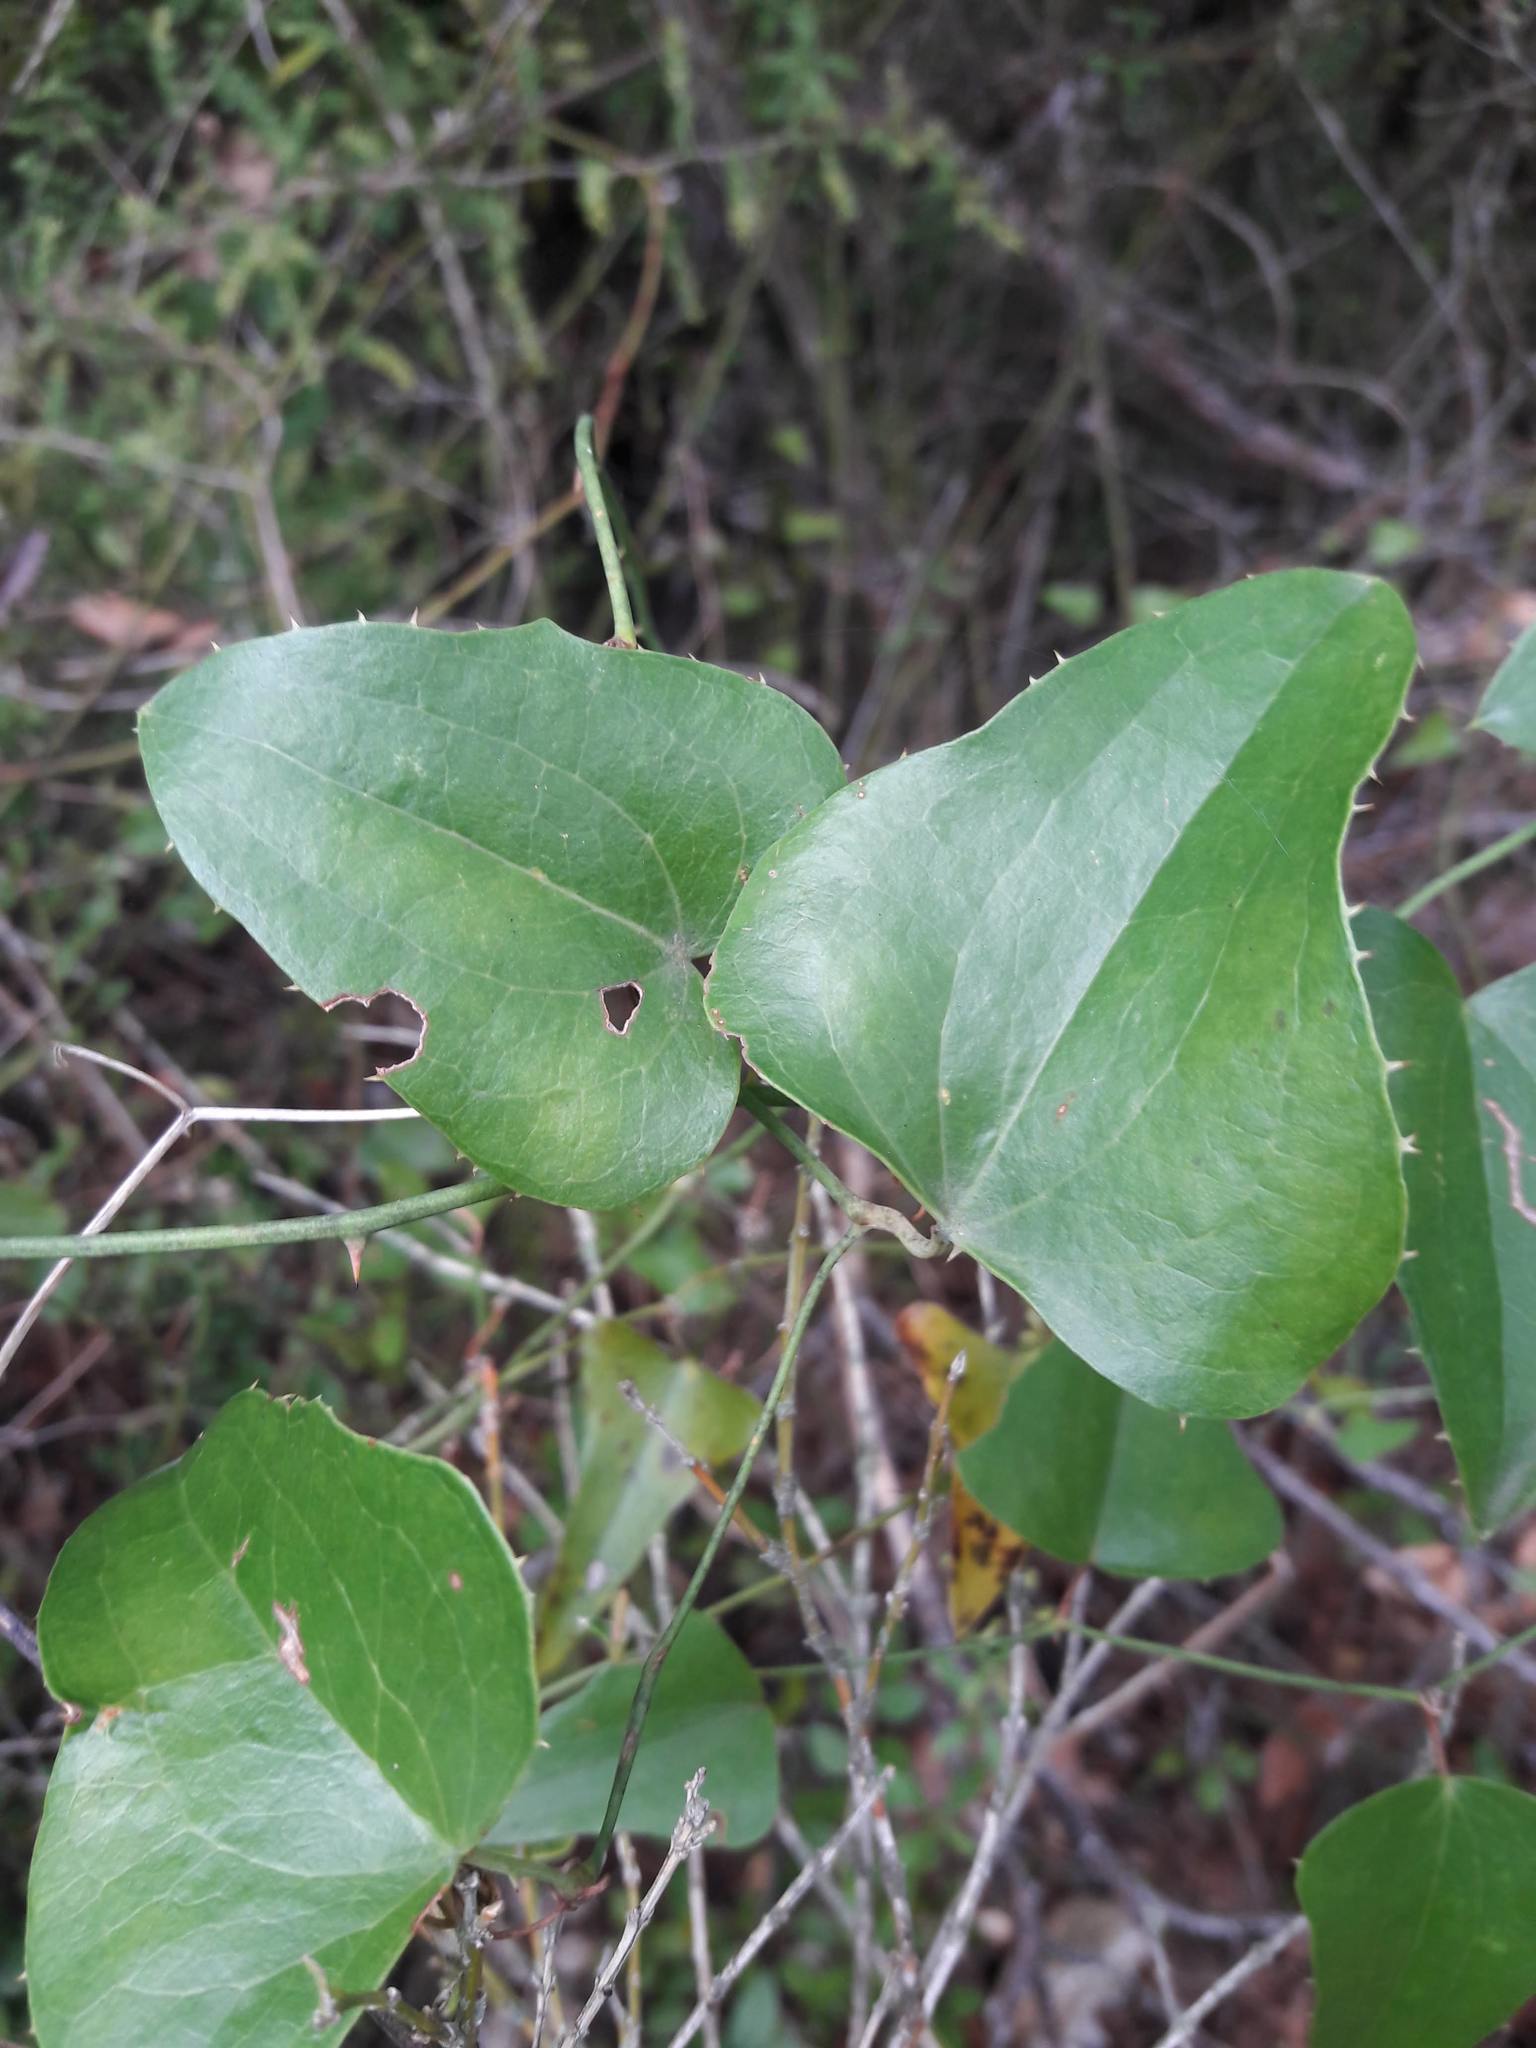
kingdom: Plantae
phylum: Tracheophyta
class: Liliopsida
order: Liliales
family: Smilacaceae
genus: Smilax
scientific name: Smilax aspera
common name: Common smilax
